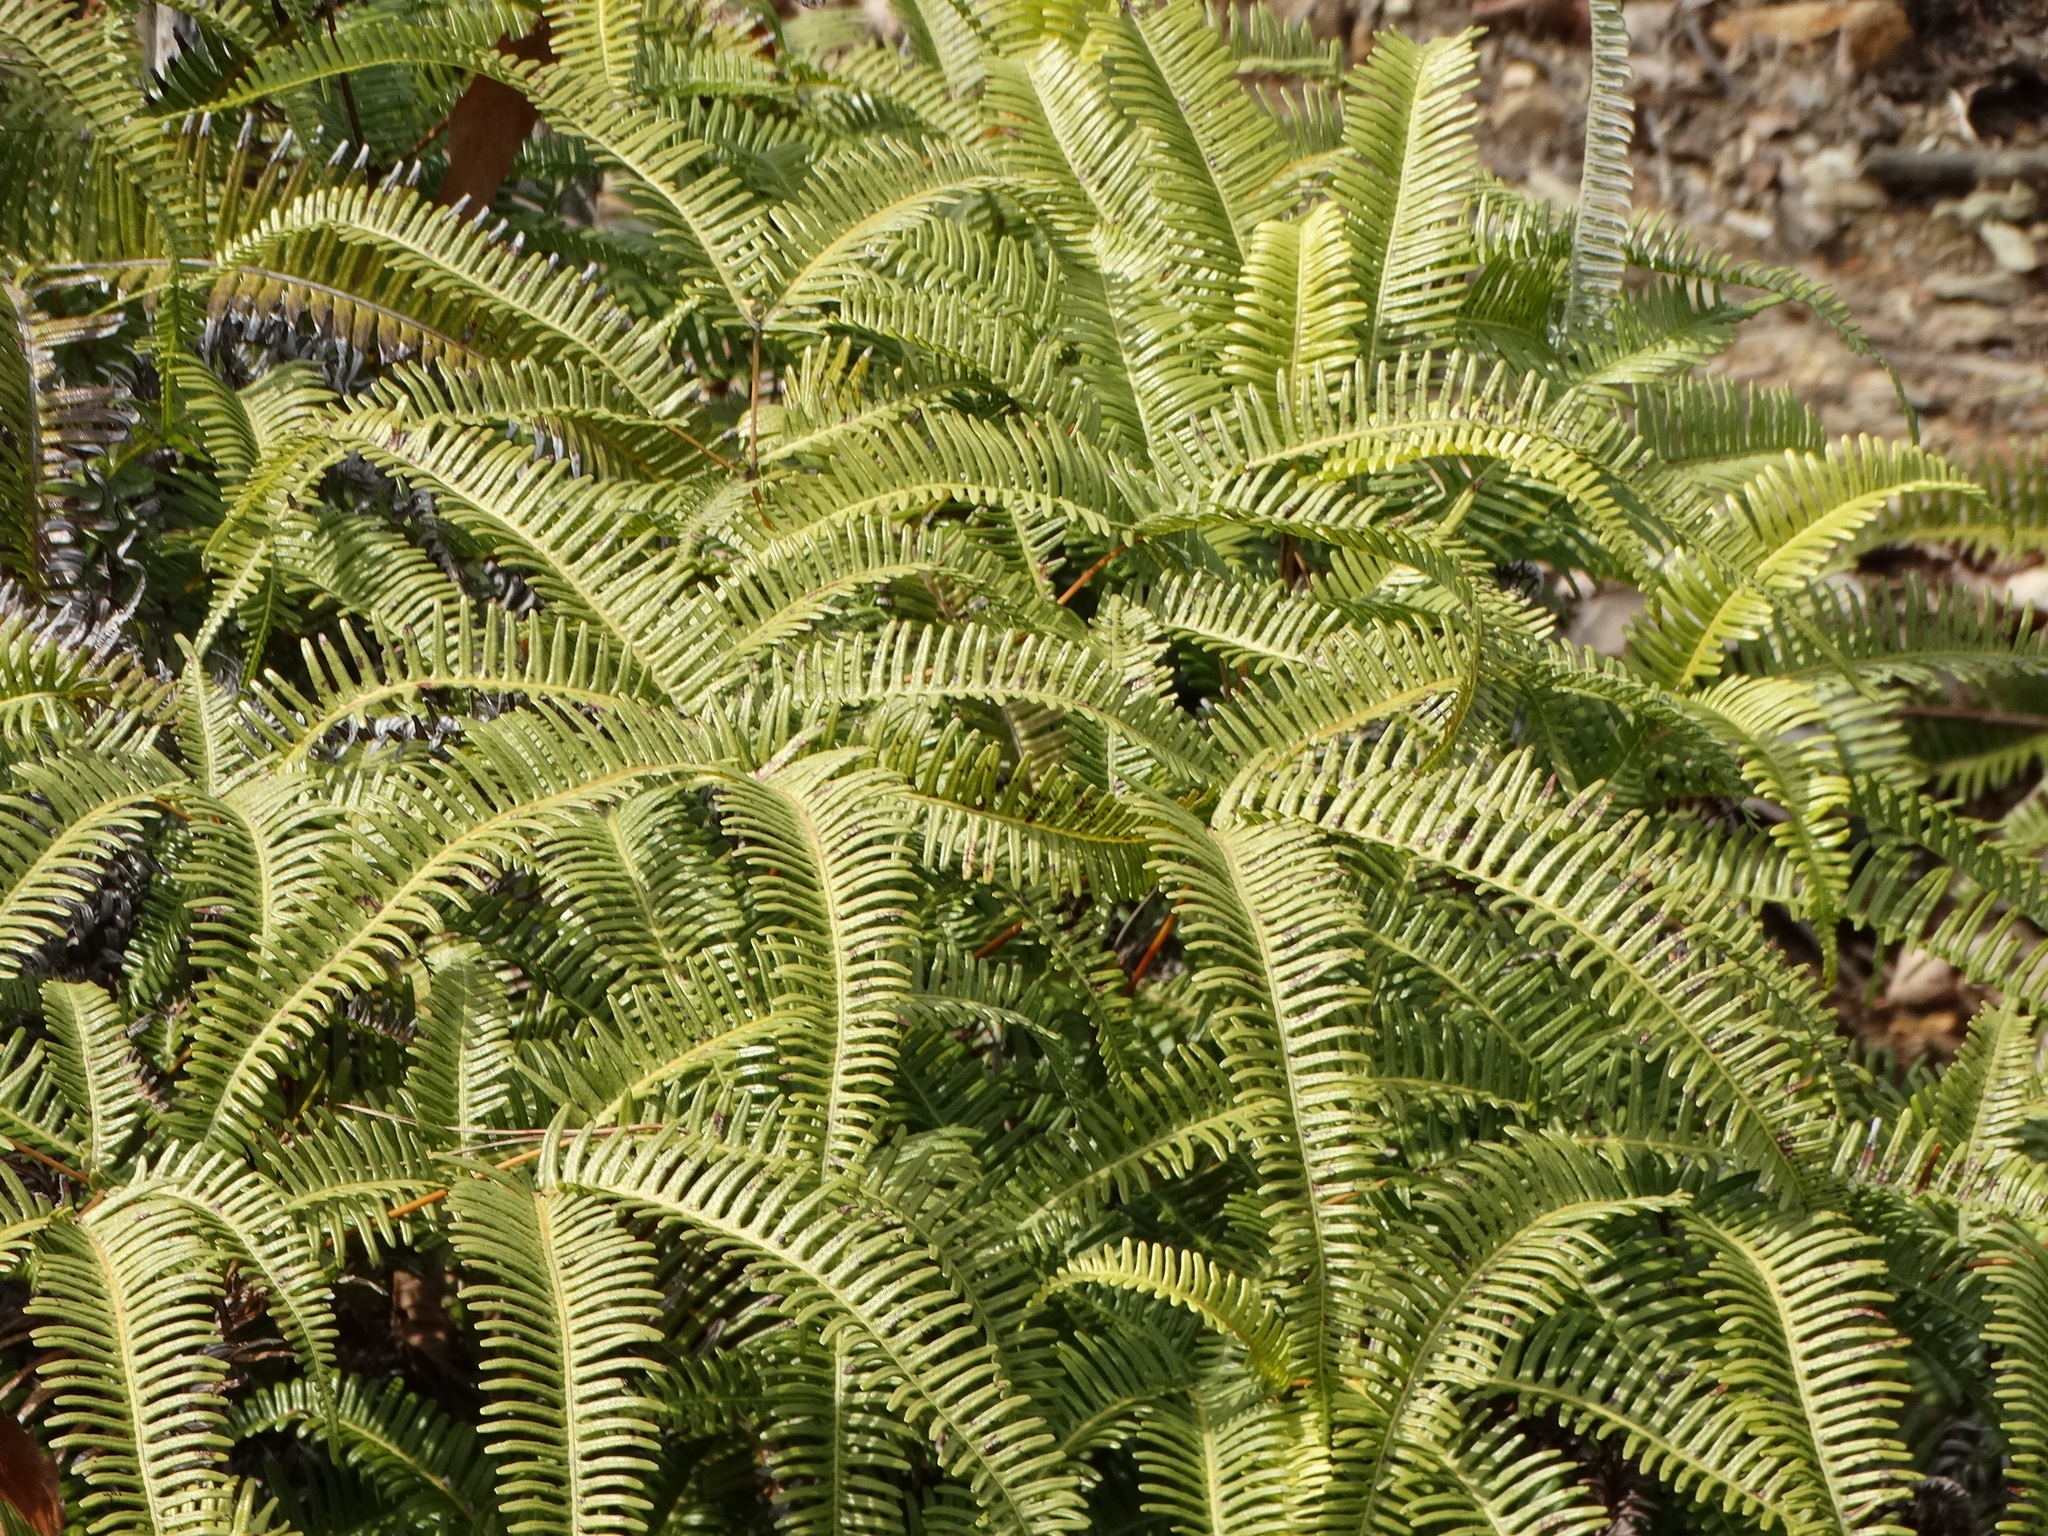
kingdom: Plantae
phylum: Tracheophyta
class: Polypodiopsida
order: Gleicheniales
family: Gleicheniaceae
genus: Dicranopteris
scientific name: Dicranopteris linearis
